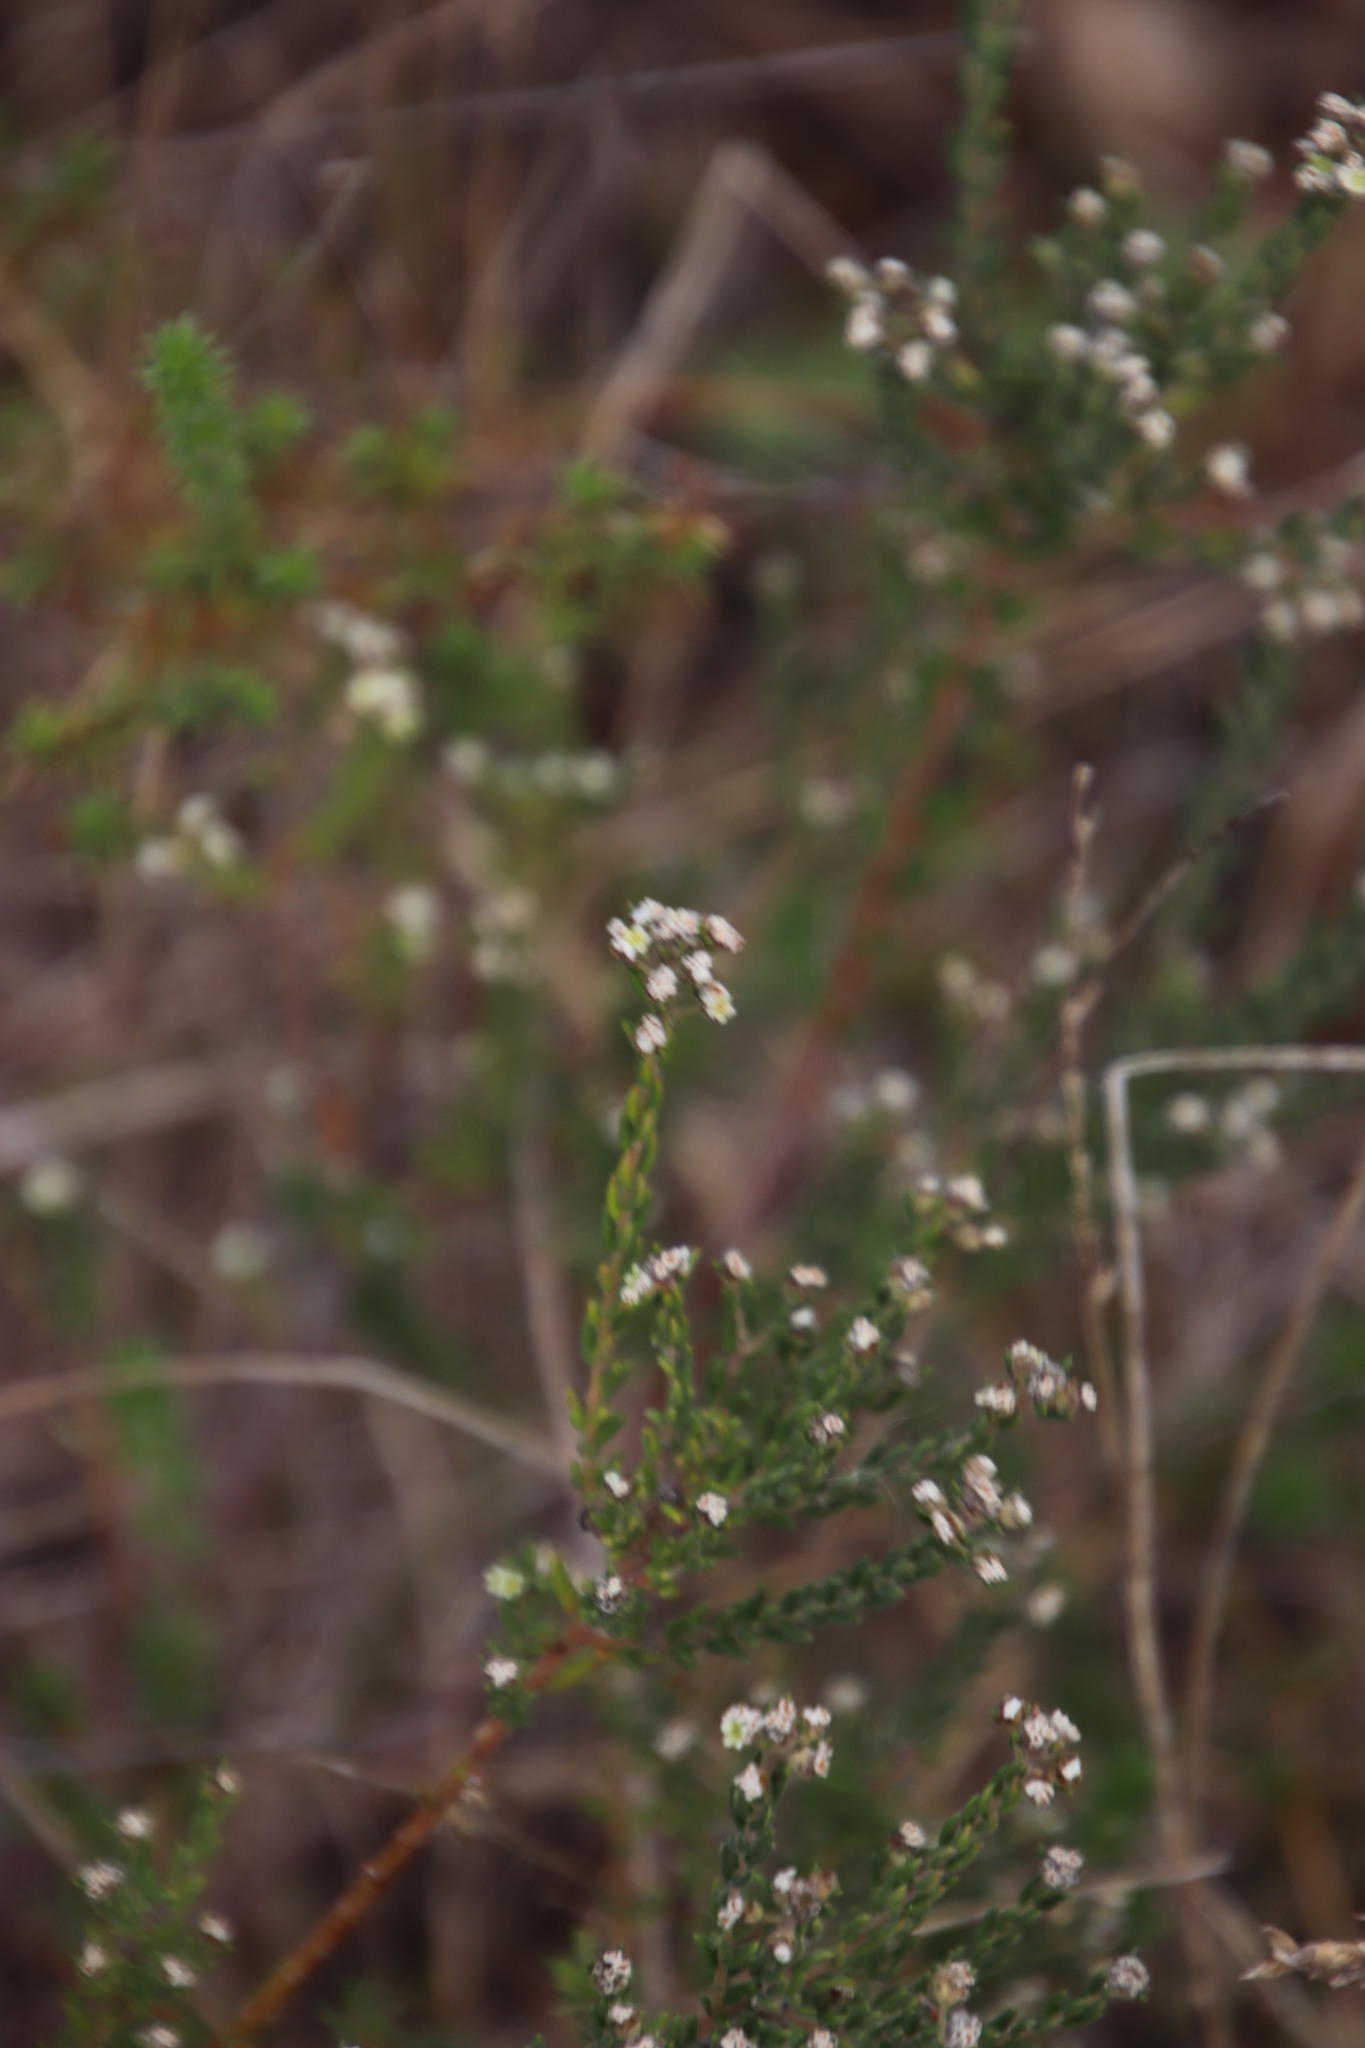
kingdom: Plantae
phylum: Tracheophyta
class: Magnoliopsida
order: Rosales
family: Rhamnaceae
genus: Phylica
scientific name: Phylica ericoides
